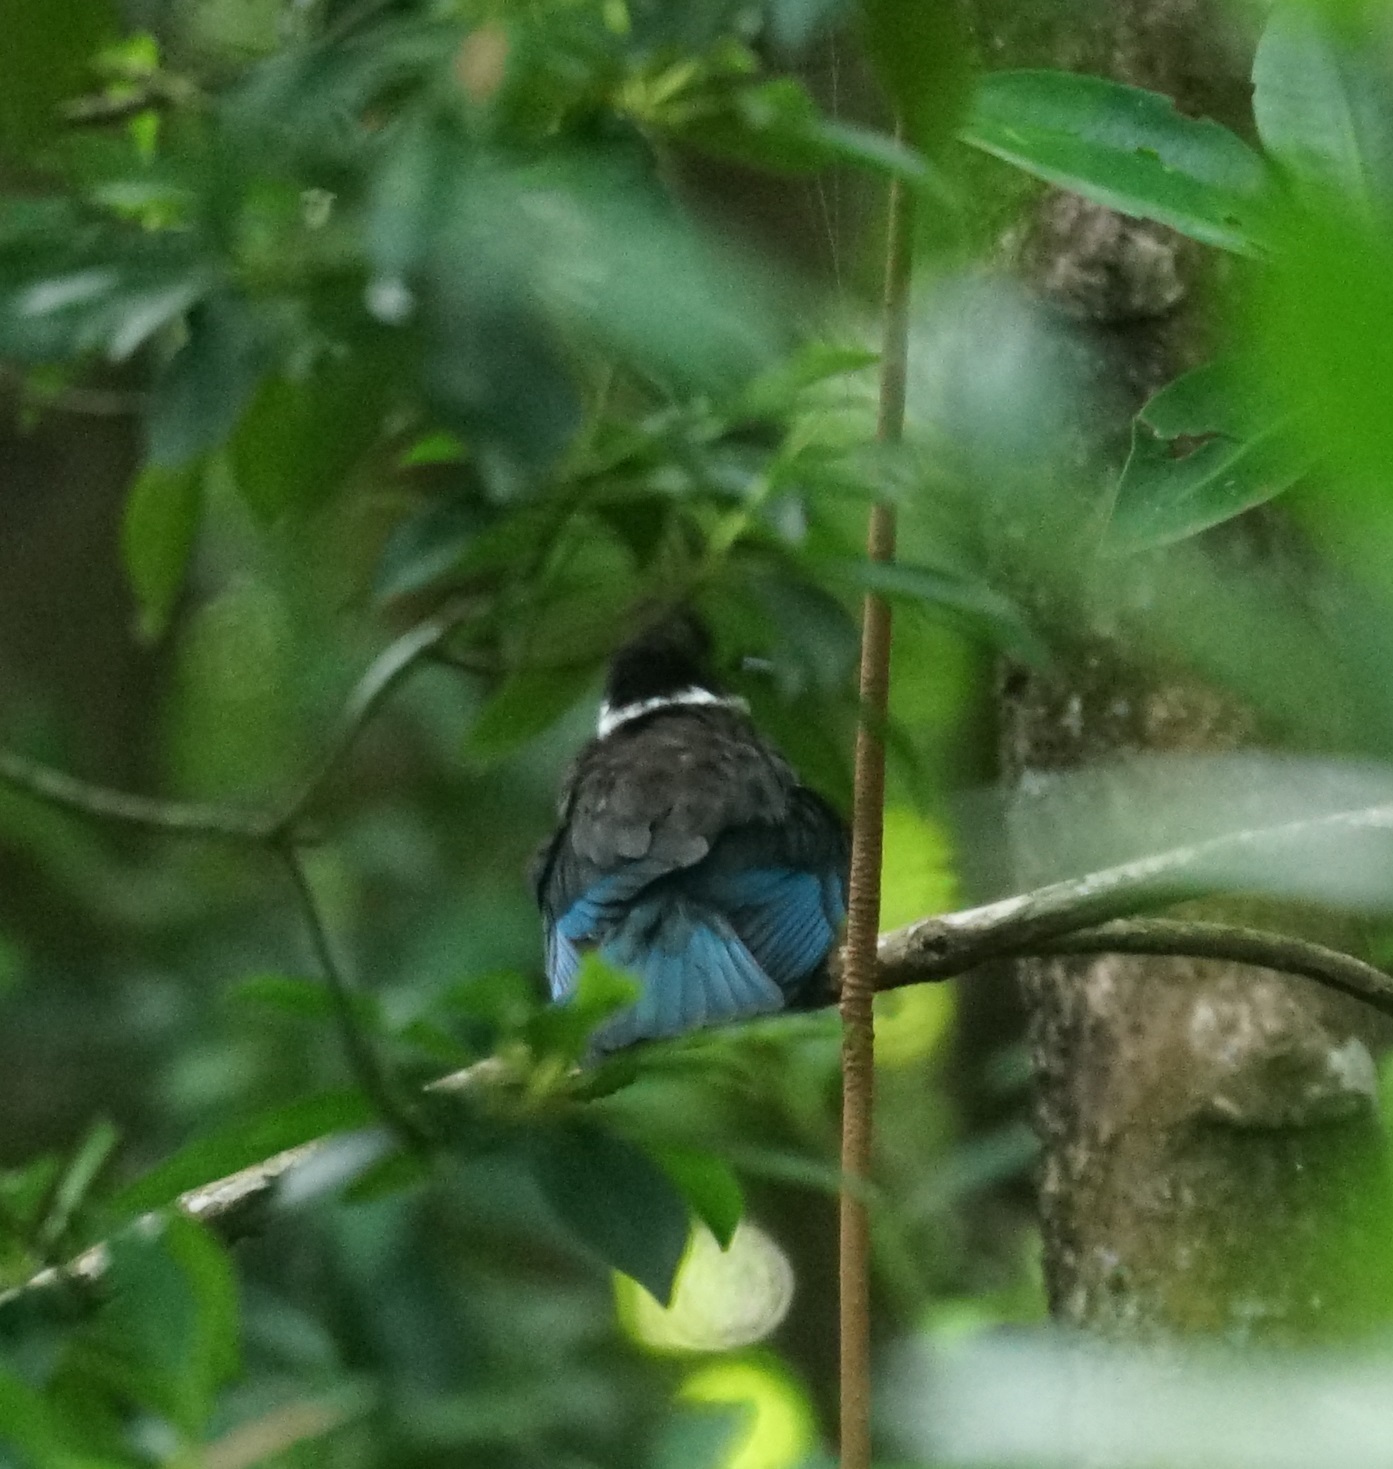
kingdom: Animalia
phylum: Chordata
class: Aves
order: Coraciiformes
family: Alcedinidae
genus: Todiramphus
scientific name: Todiramphus sordidus
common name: Torresian kingfisher
